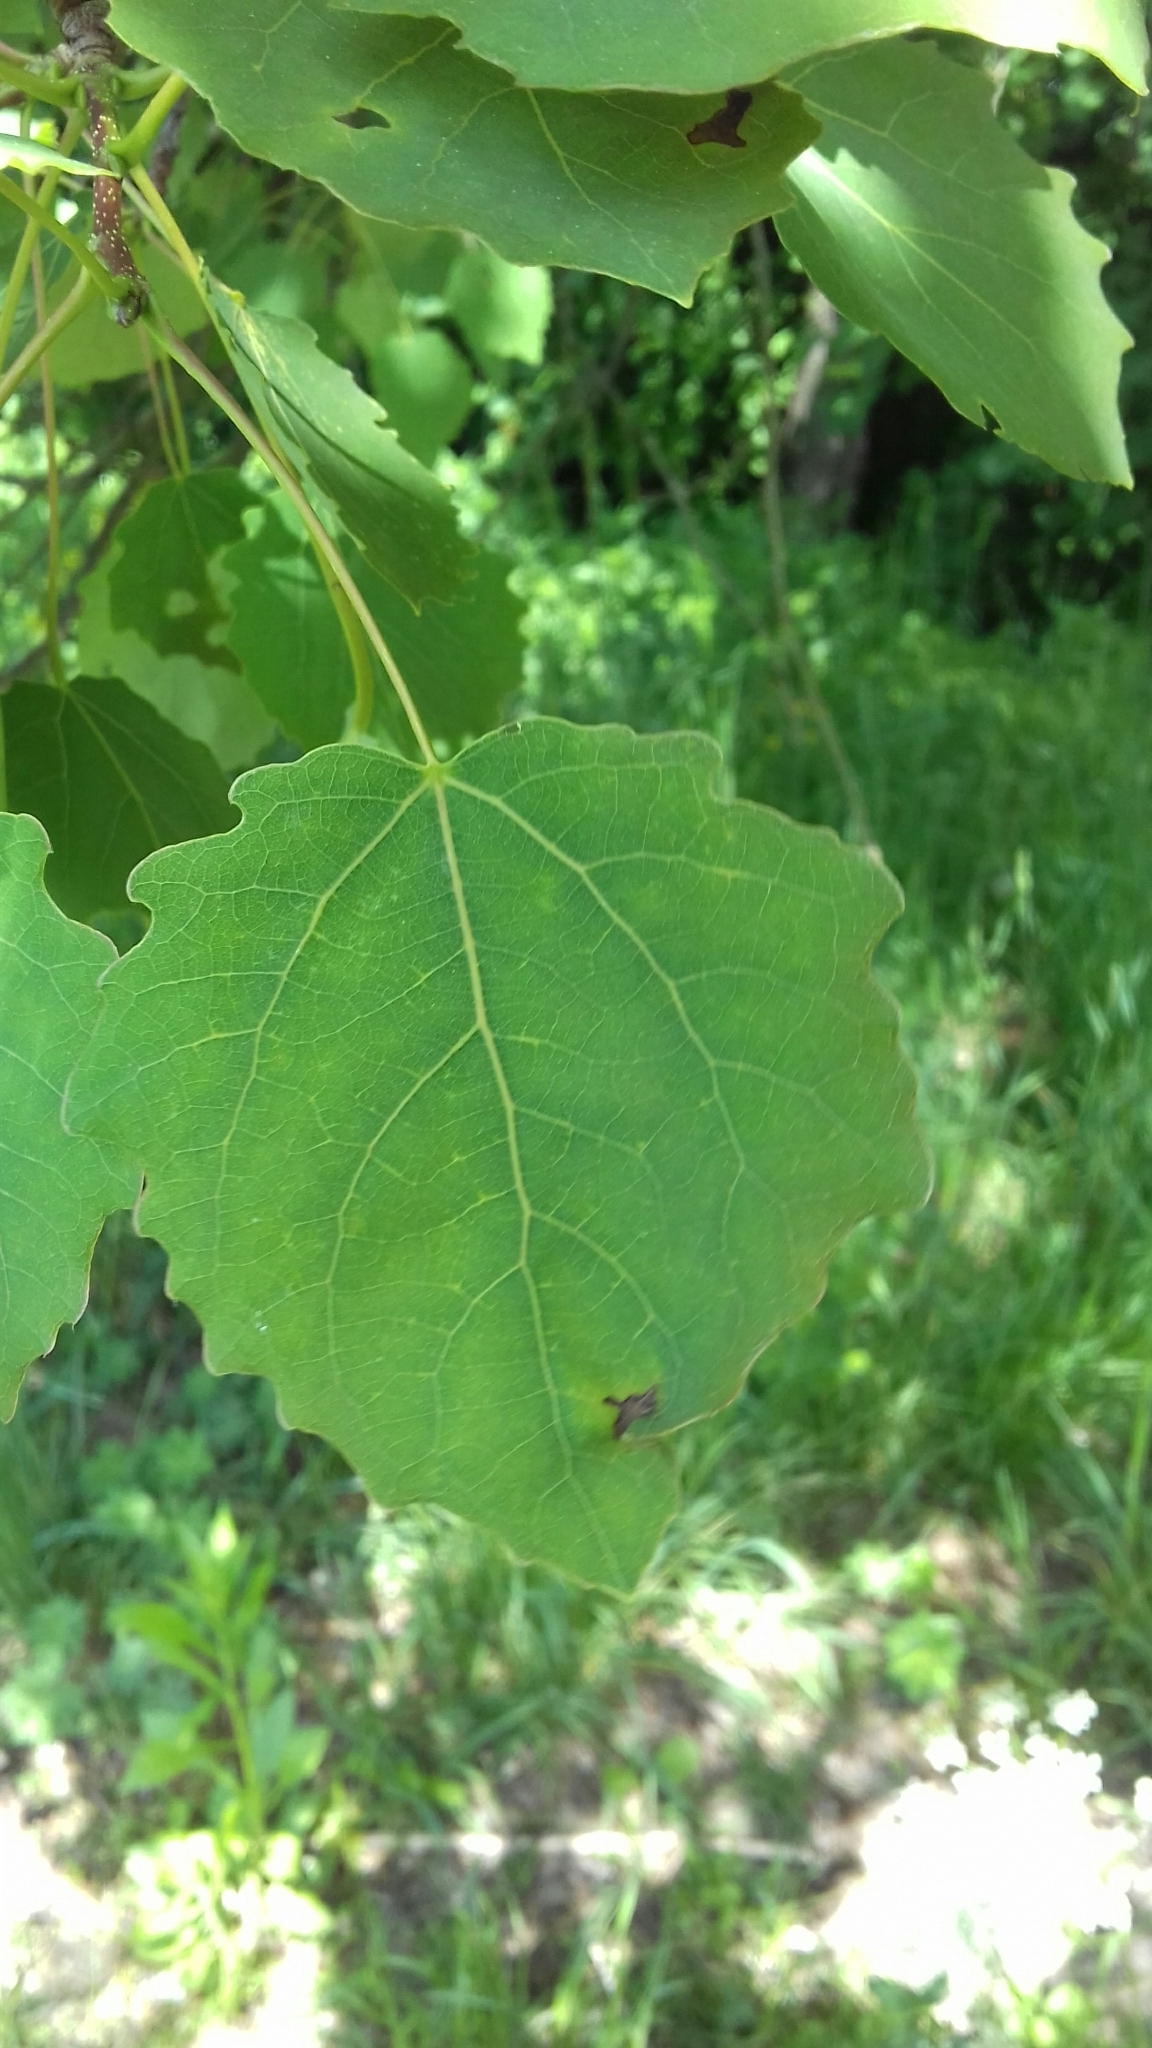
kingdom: Plantae
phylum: Tracheophyta
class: Magnoliopsida
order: Malpighiales
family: Salicaceae
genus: Populus
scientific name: Populus tremula
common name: European aspen
